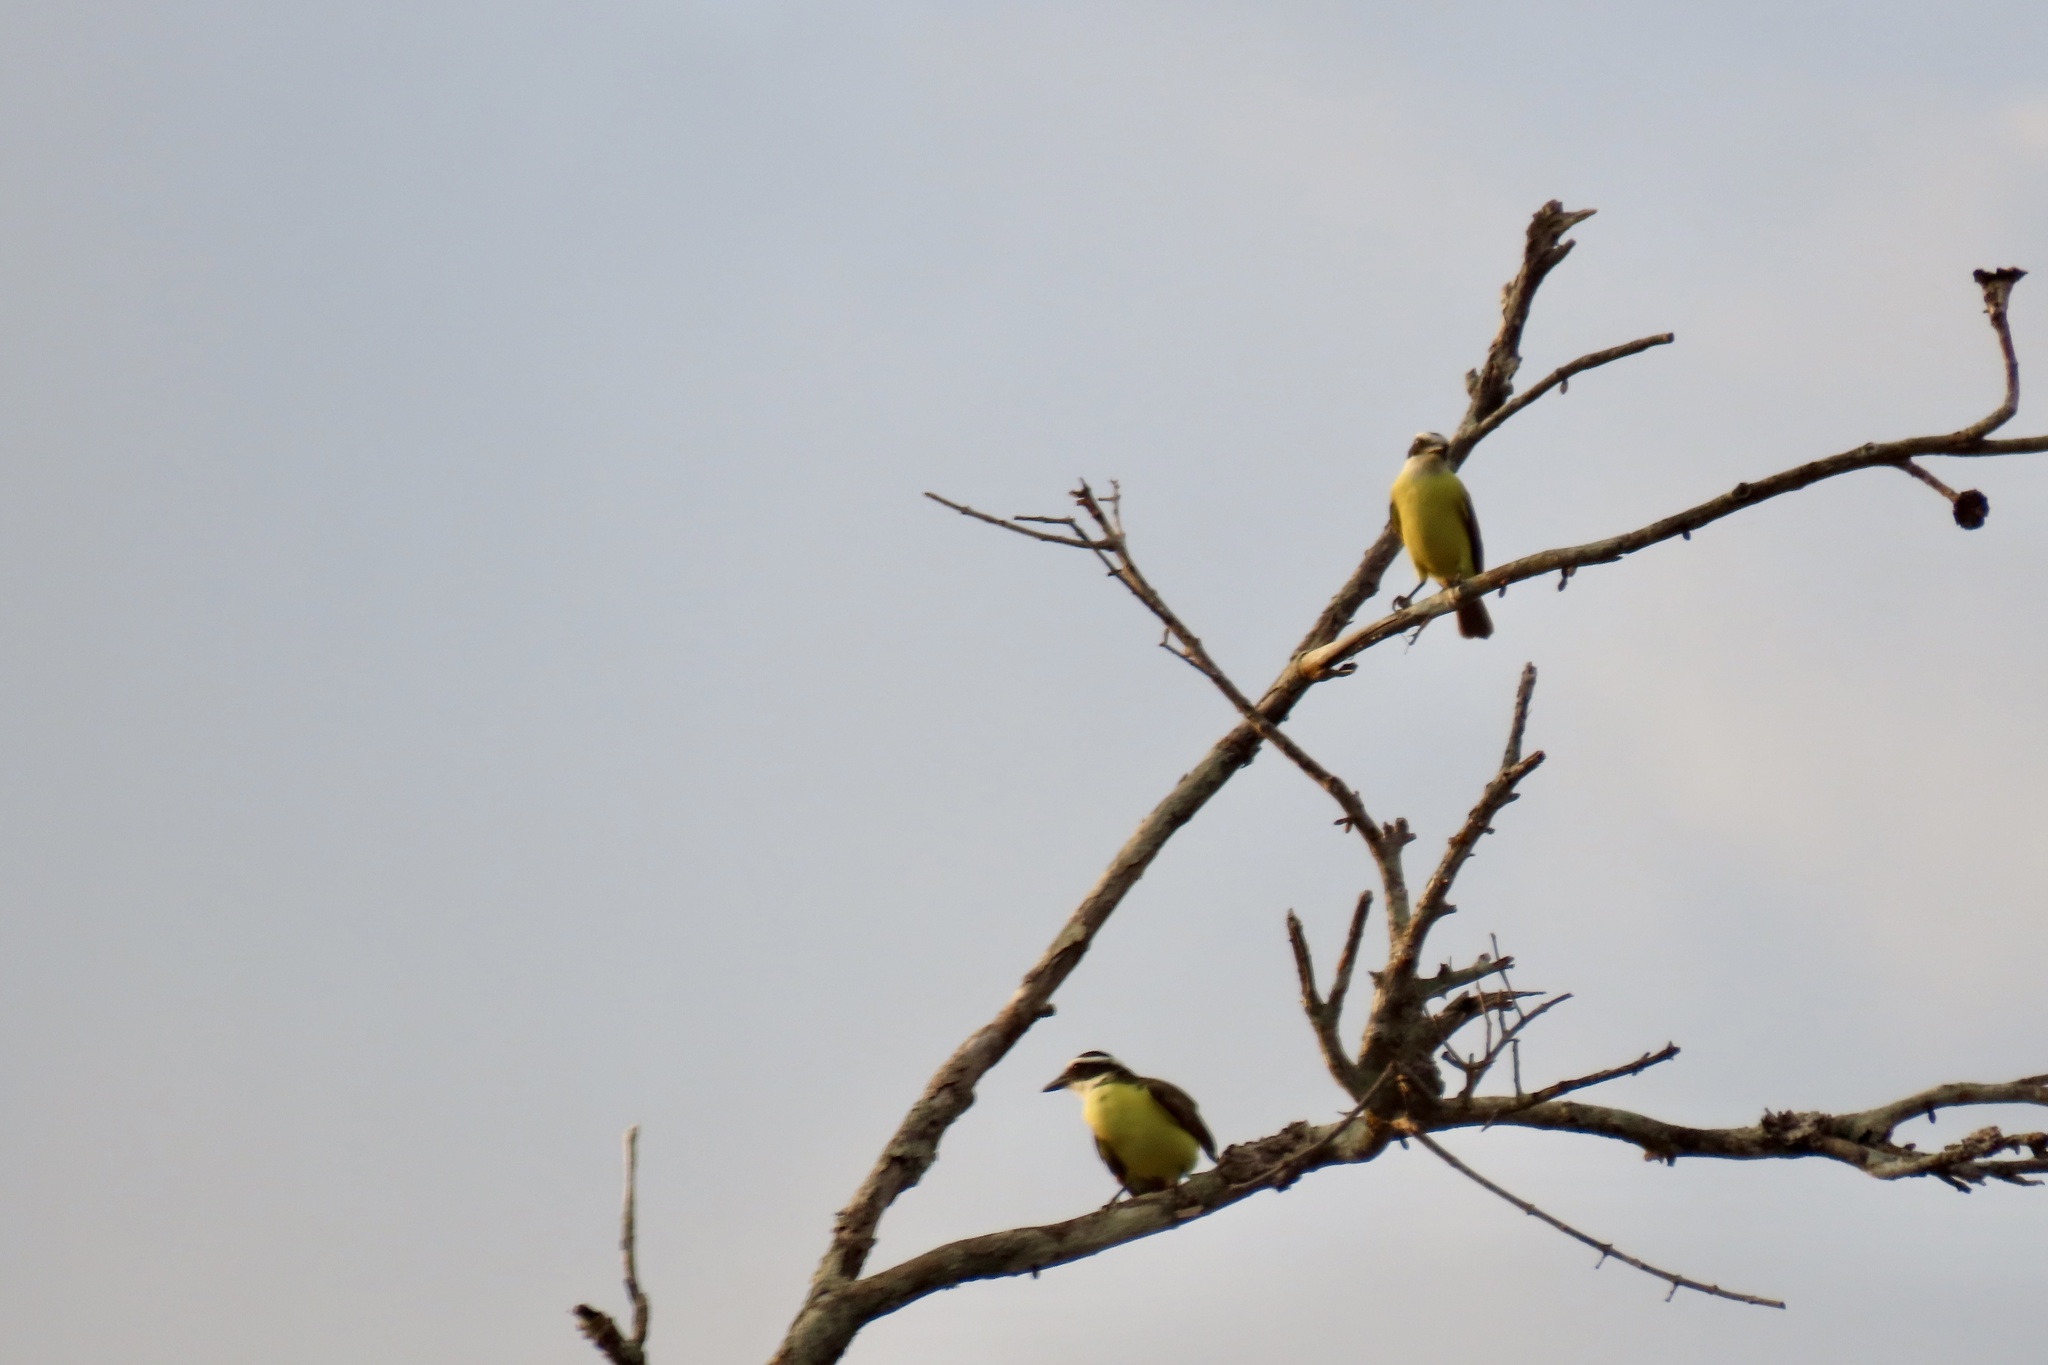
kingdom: Animalia
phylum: Chordata
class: Aves
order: Passeriformes
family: Tyrannidae
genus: Pitangus
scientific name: Pitangus sulphuratus
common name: Great kiskadee
